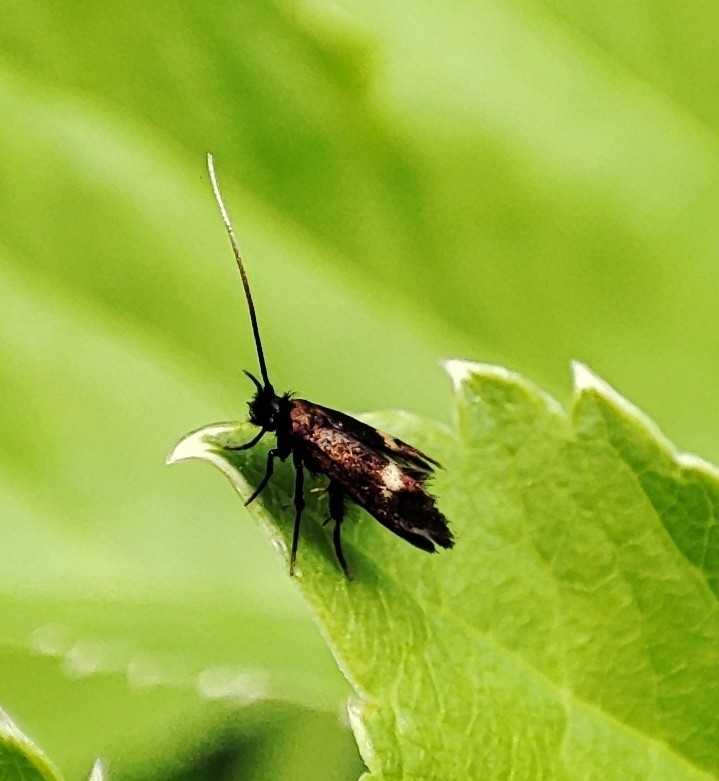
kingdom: Animalia
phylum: Arthropoda
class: Insecta
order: Lepidoptera
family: Adelidae
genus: Cauchas
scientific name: Cauchas fibulella
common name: Little long-horn
